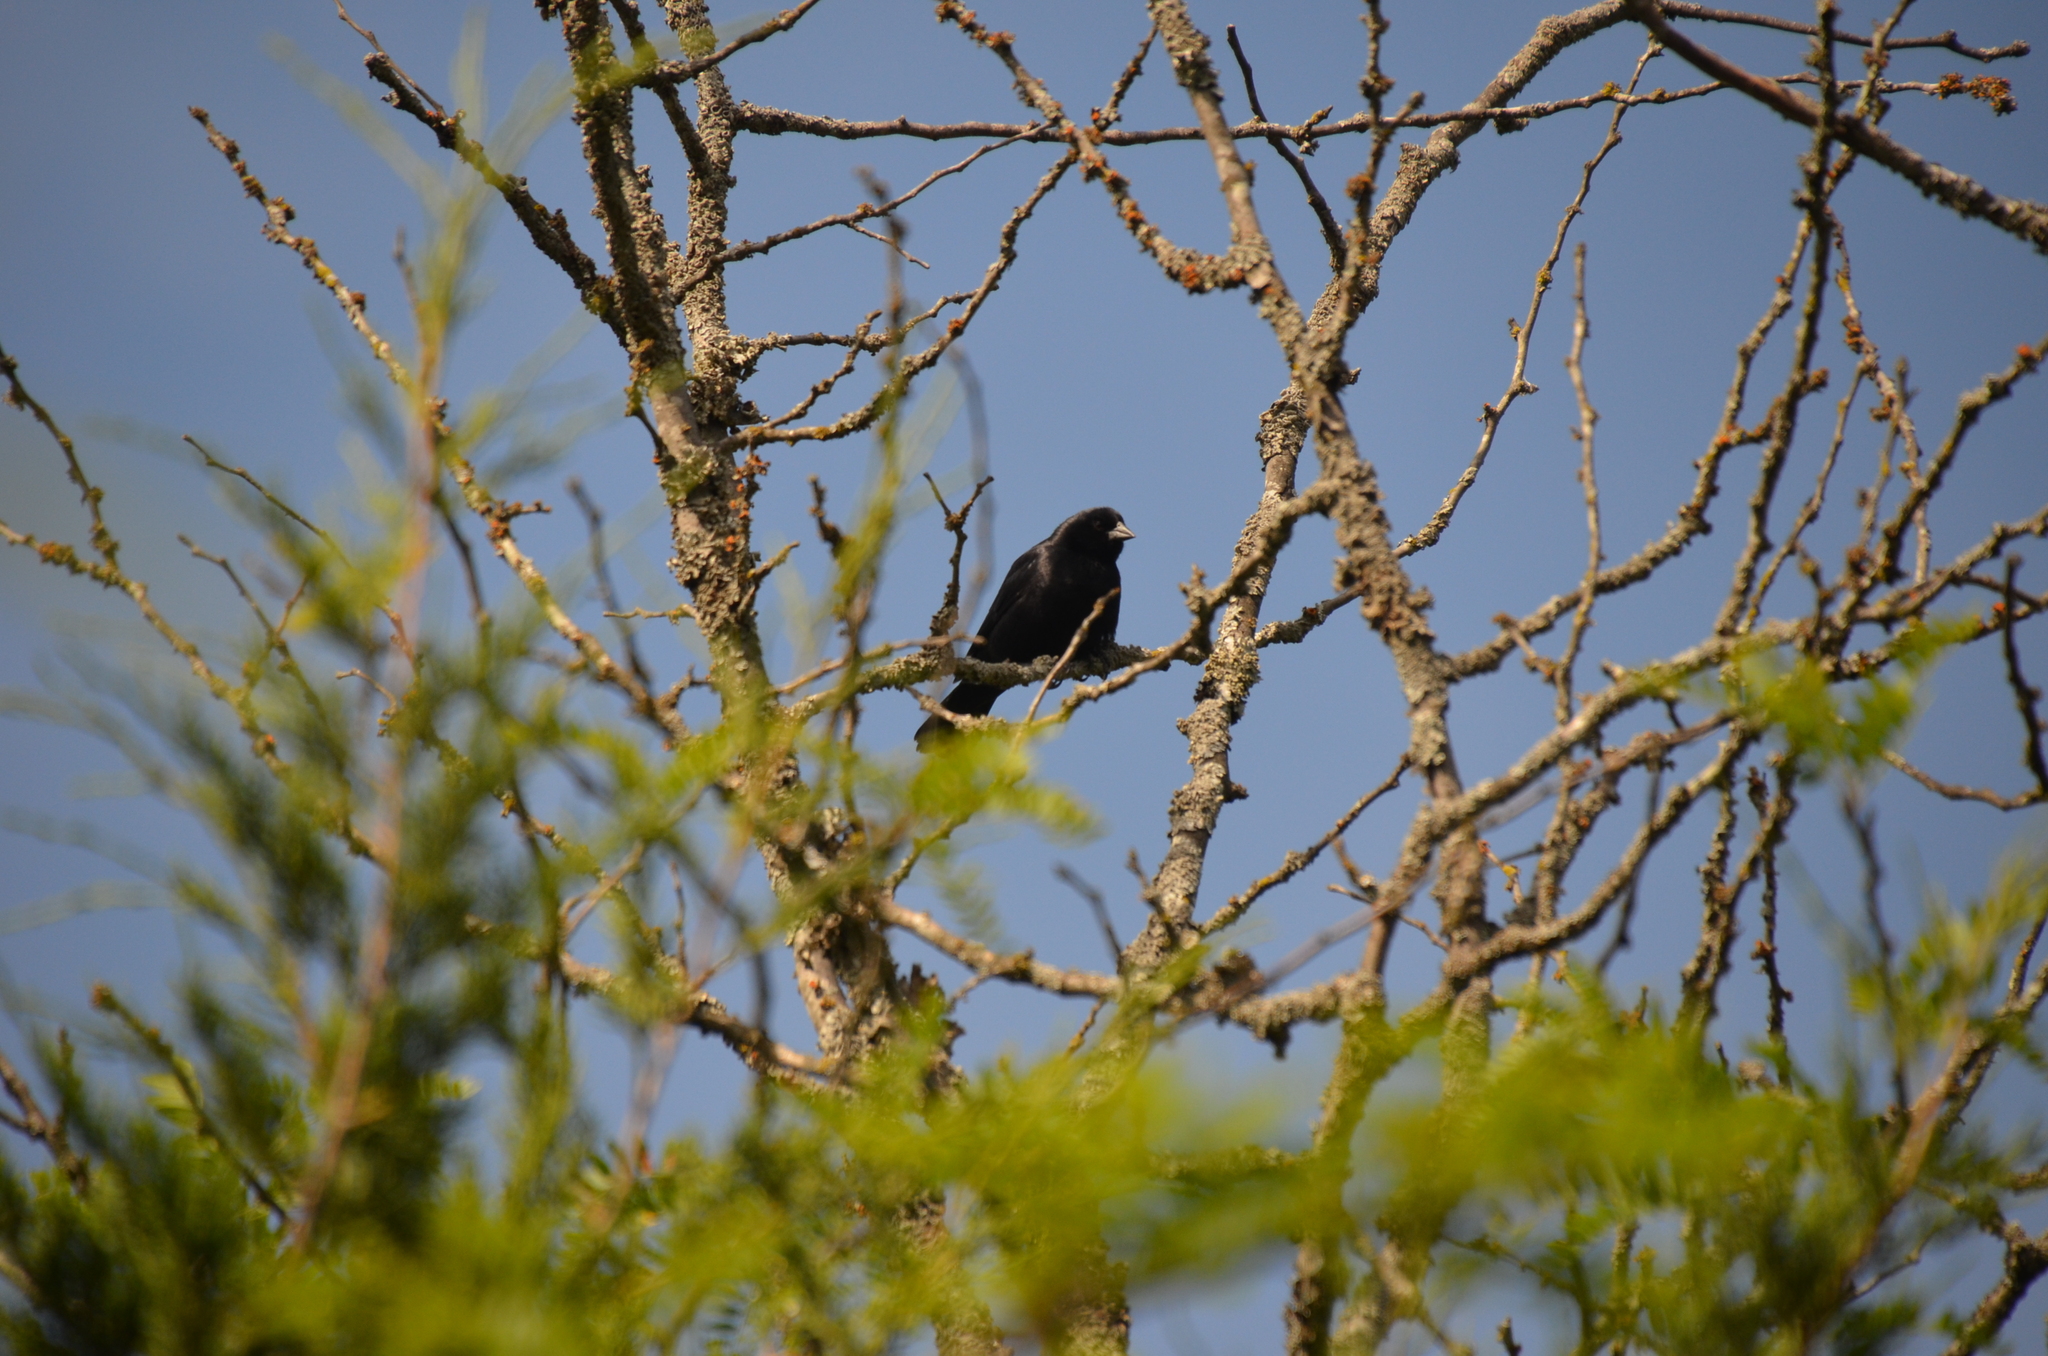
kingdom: Animalia
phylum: Chordata
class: Aves
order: Passeriformes
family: Icteridae
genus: Molothrus
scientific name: Molothrus rufoaxillaris
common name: Screaming cowbird
